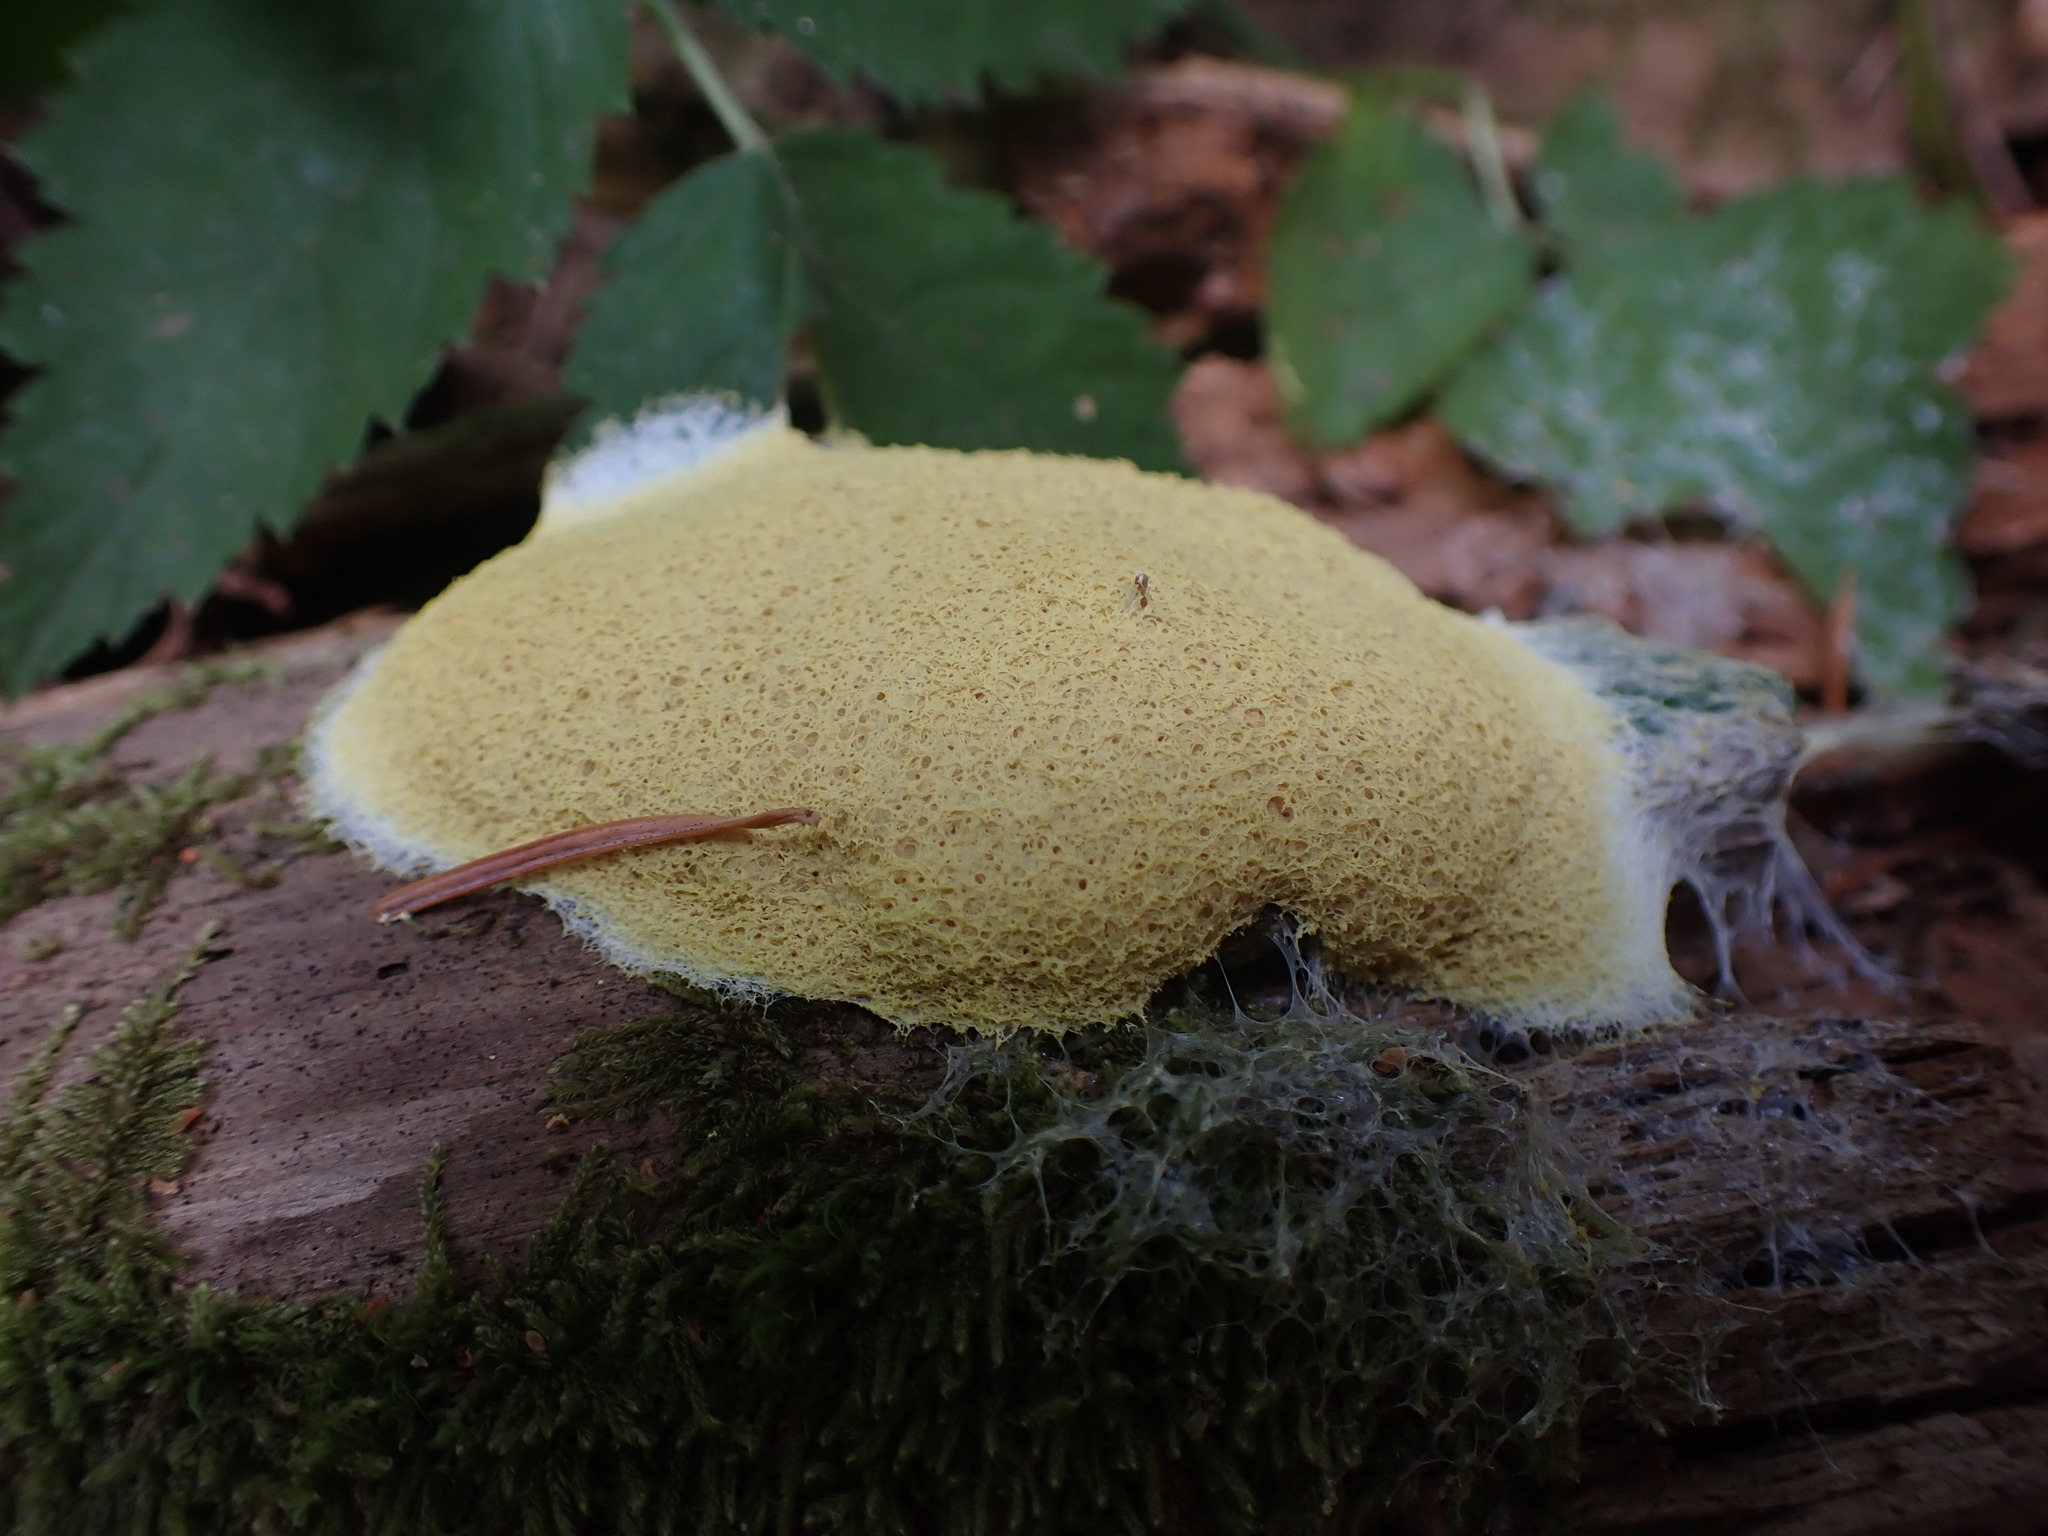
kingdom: Protozoa
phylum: Mycetozoa
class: Myxomycetes
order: Physarales
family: Physaraceae
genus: Fuligo
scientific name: Fuligo septica
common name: Dog vomit slime mold
